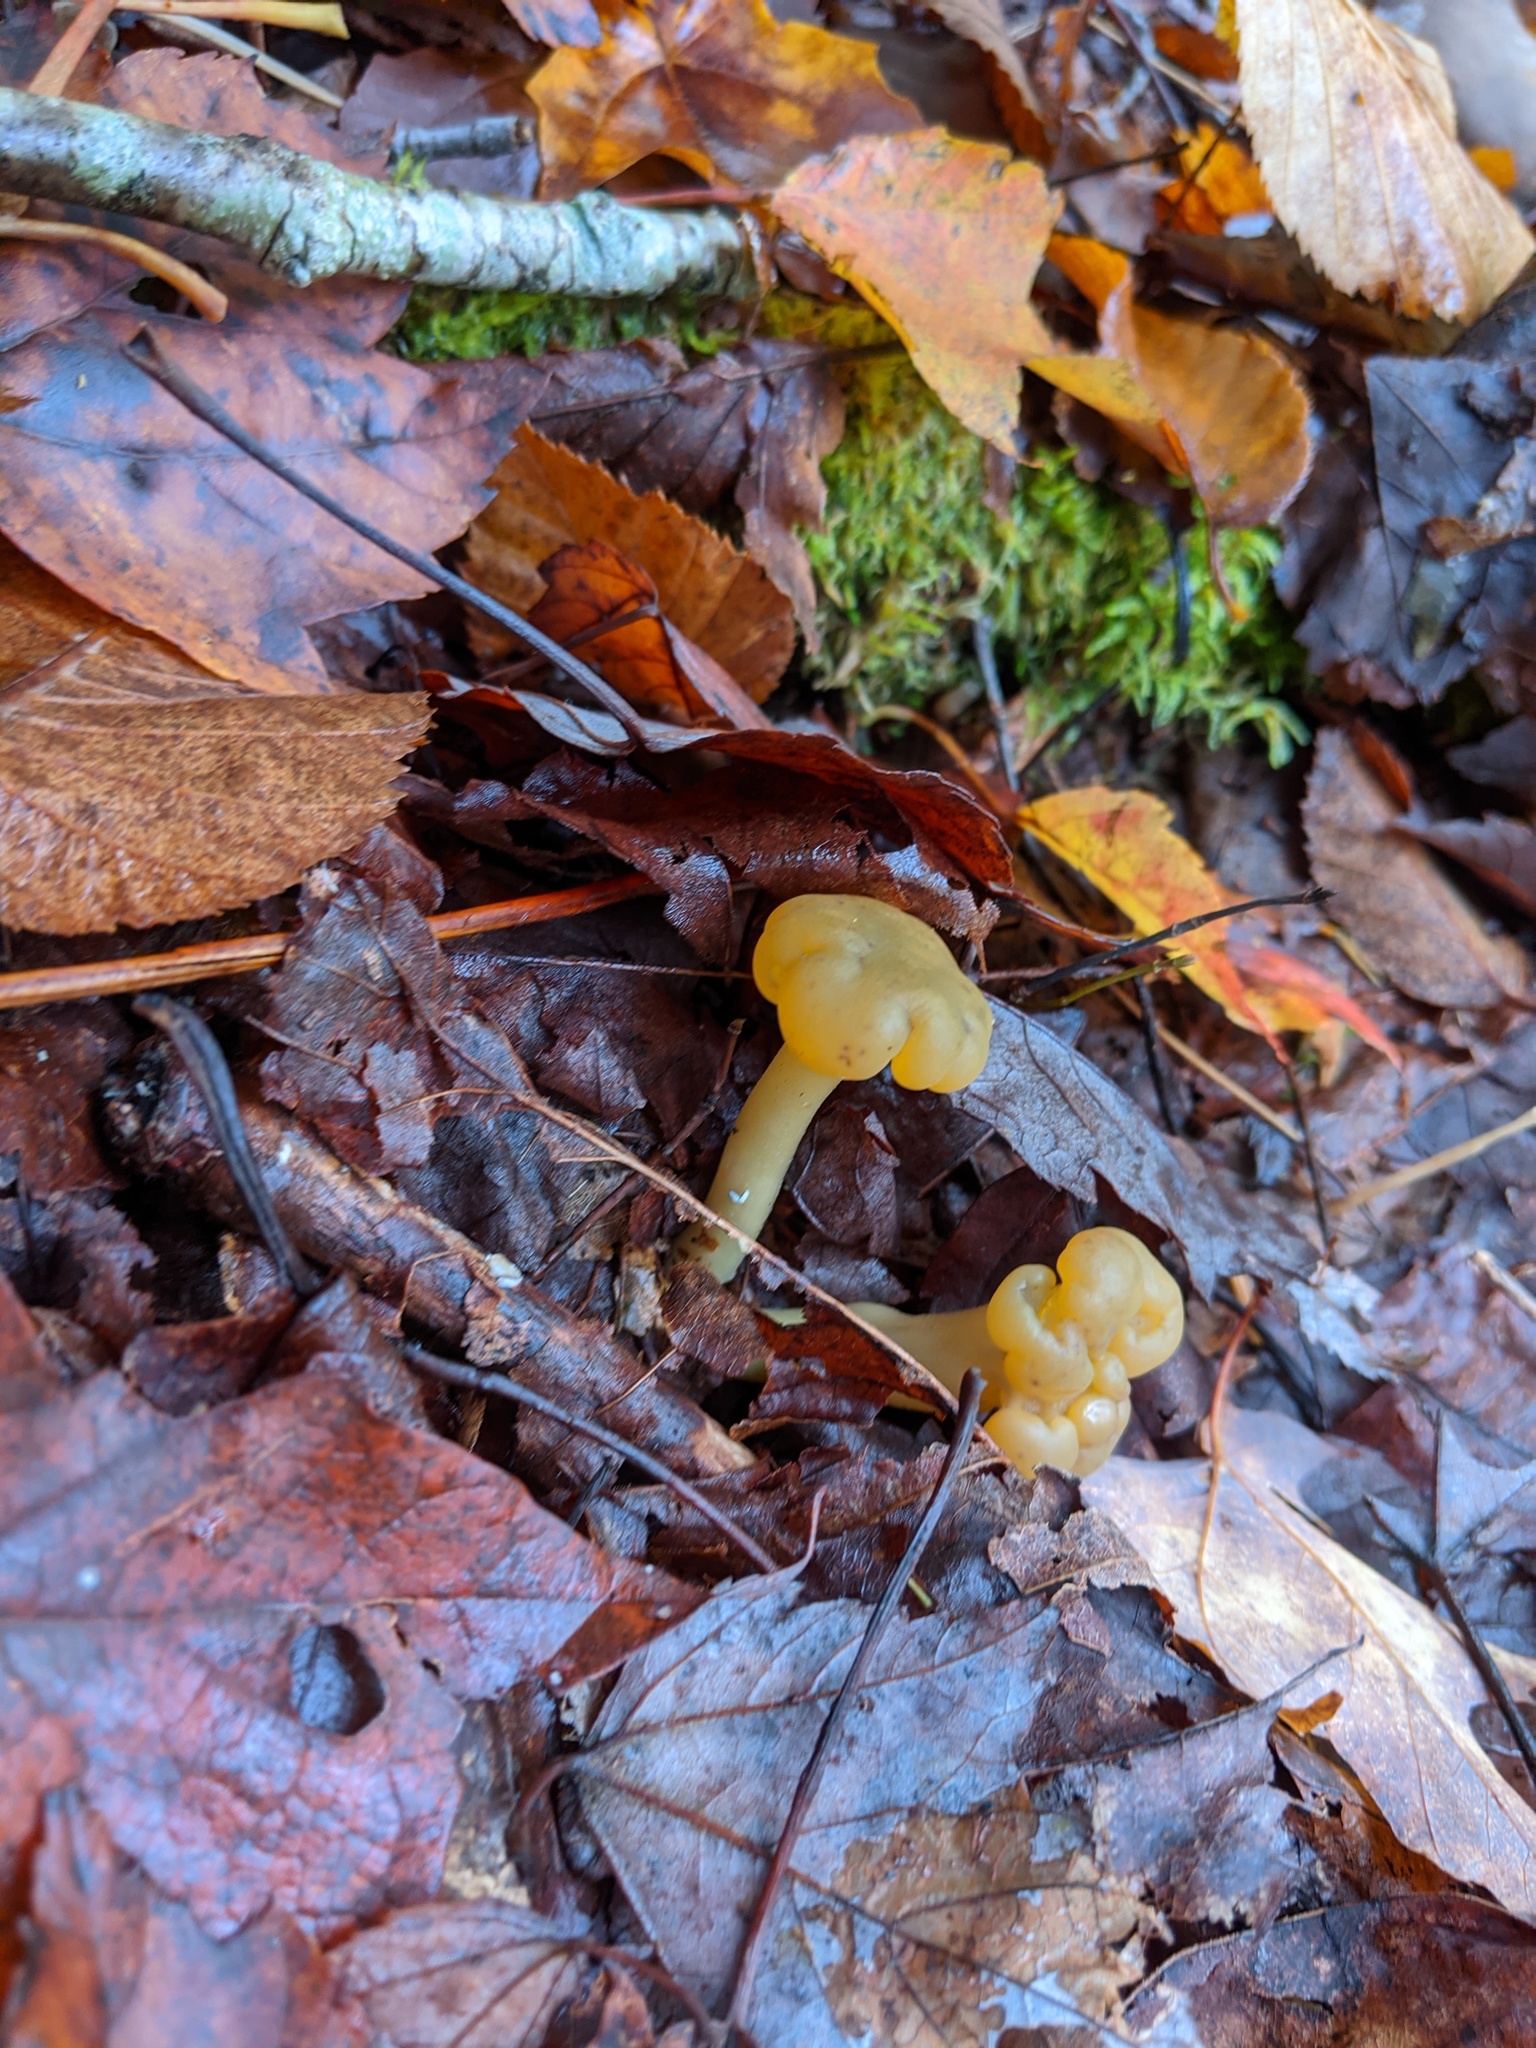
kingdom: Fungi
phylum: Ascomycota
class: Leotiomycetes
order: Leotiales
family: Leotiaceae
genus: Leotia
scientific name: Leotia lubrica
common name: Jellybaby
